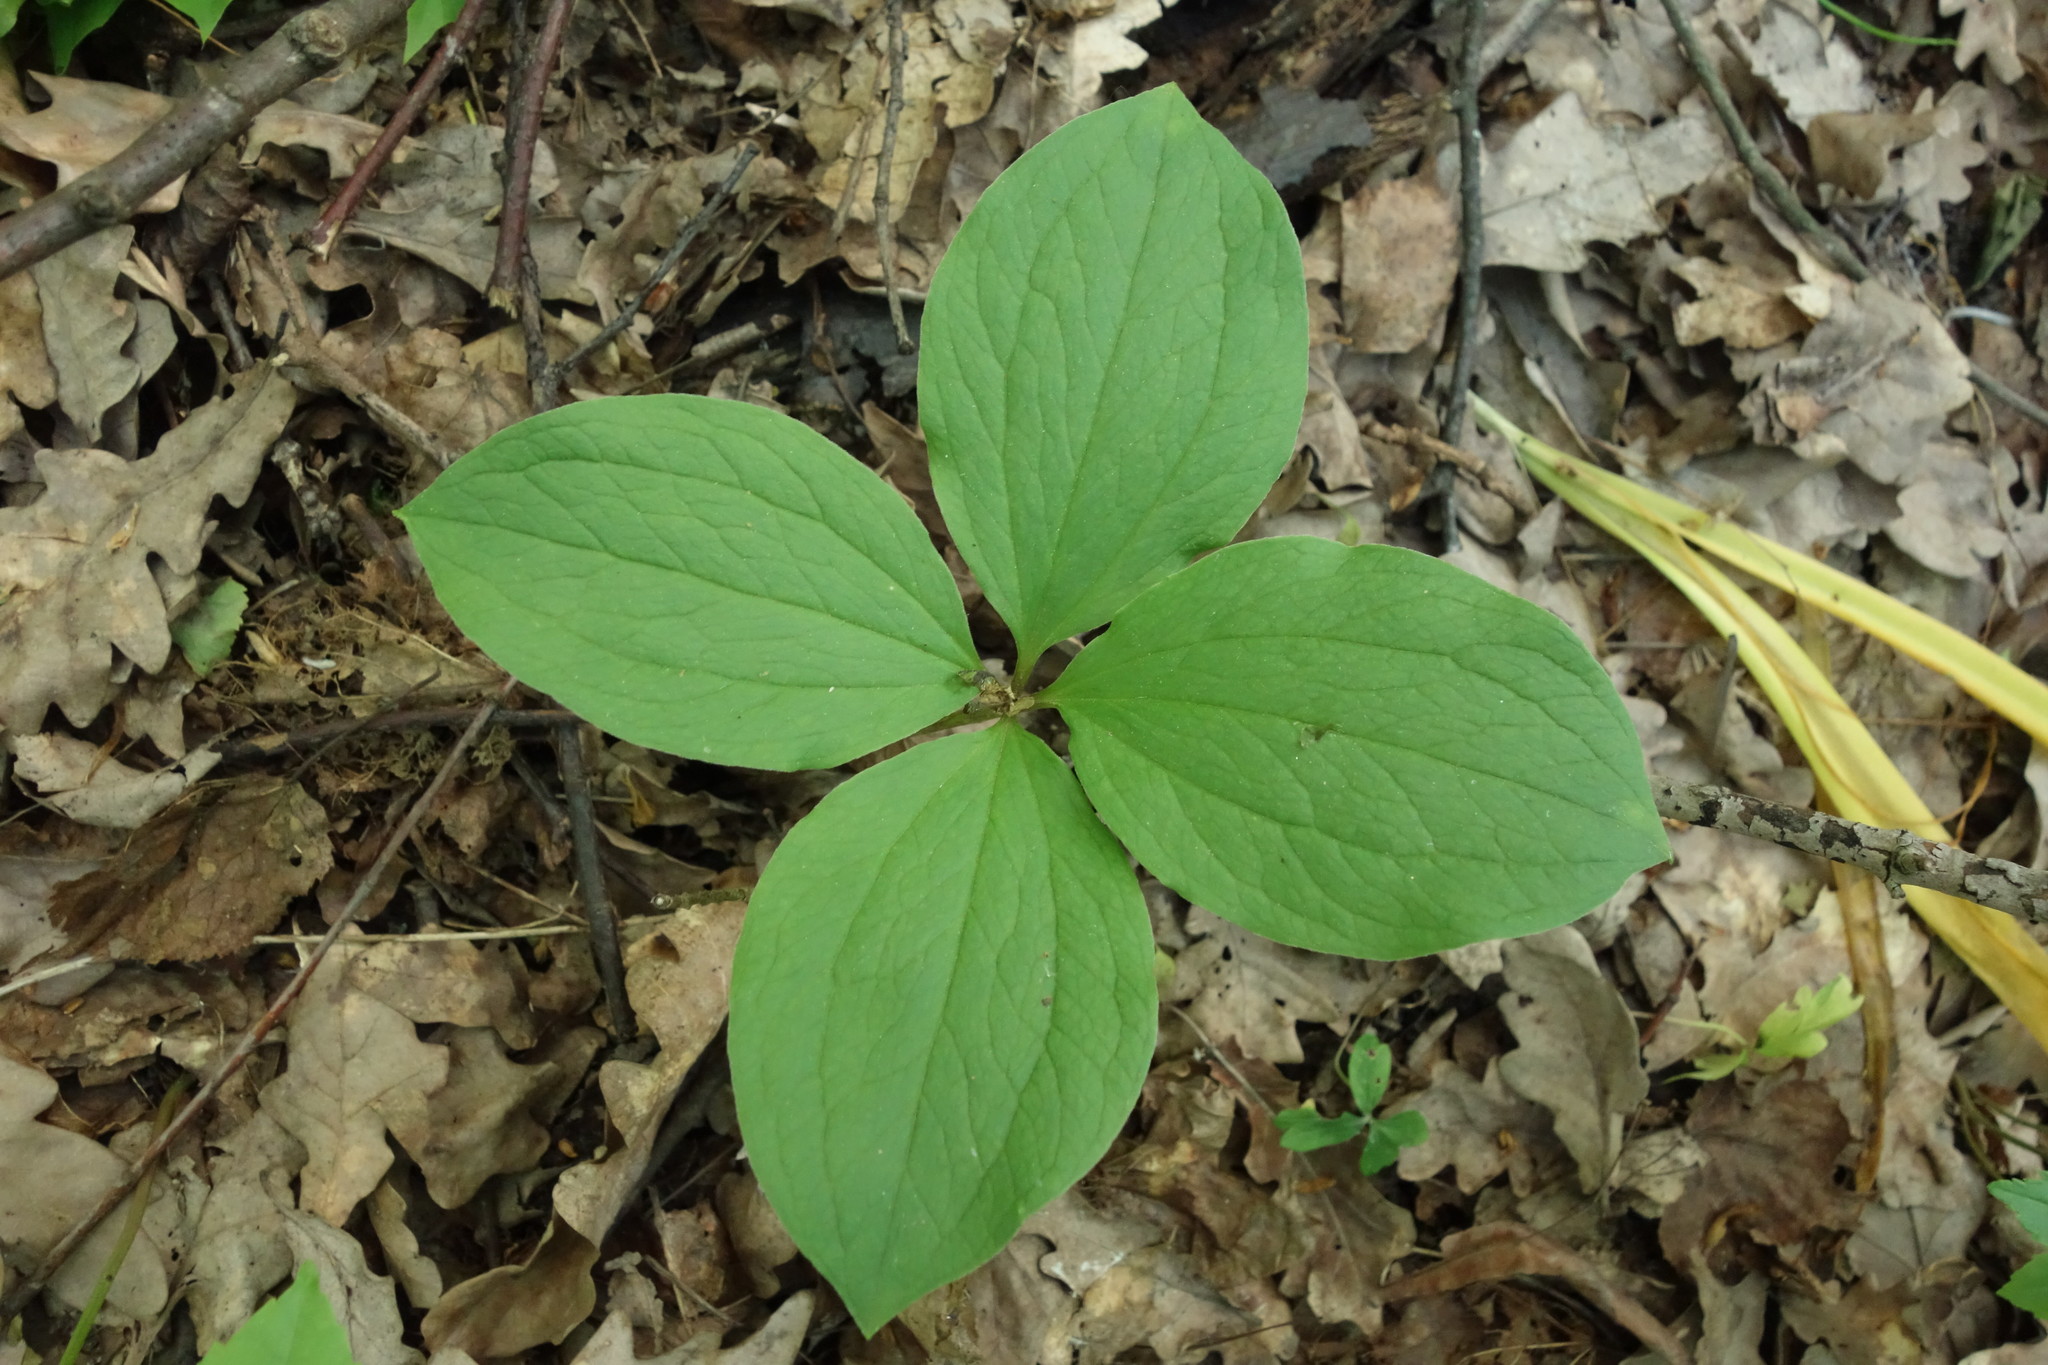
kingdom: Plantae
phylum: Tracheophyta
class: Liliopsida
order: Liliales
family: Melanthiaceae
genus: Paris
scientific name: Paris quadrifolia
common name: Herb-paris
